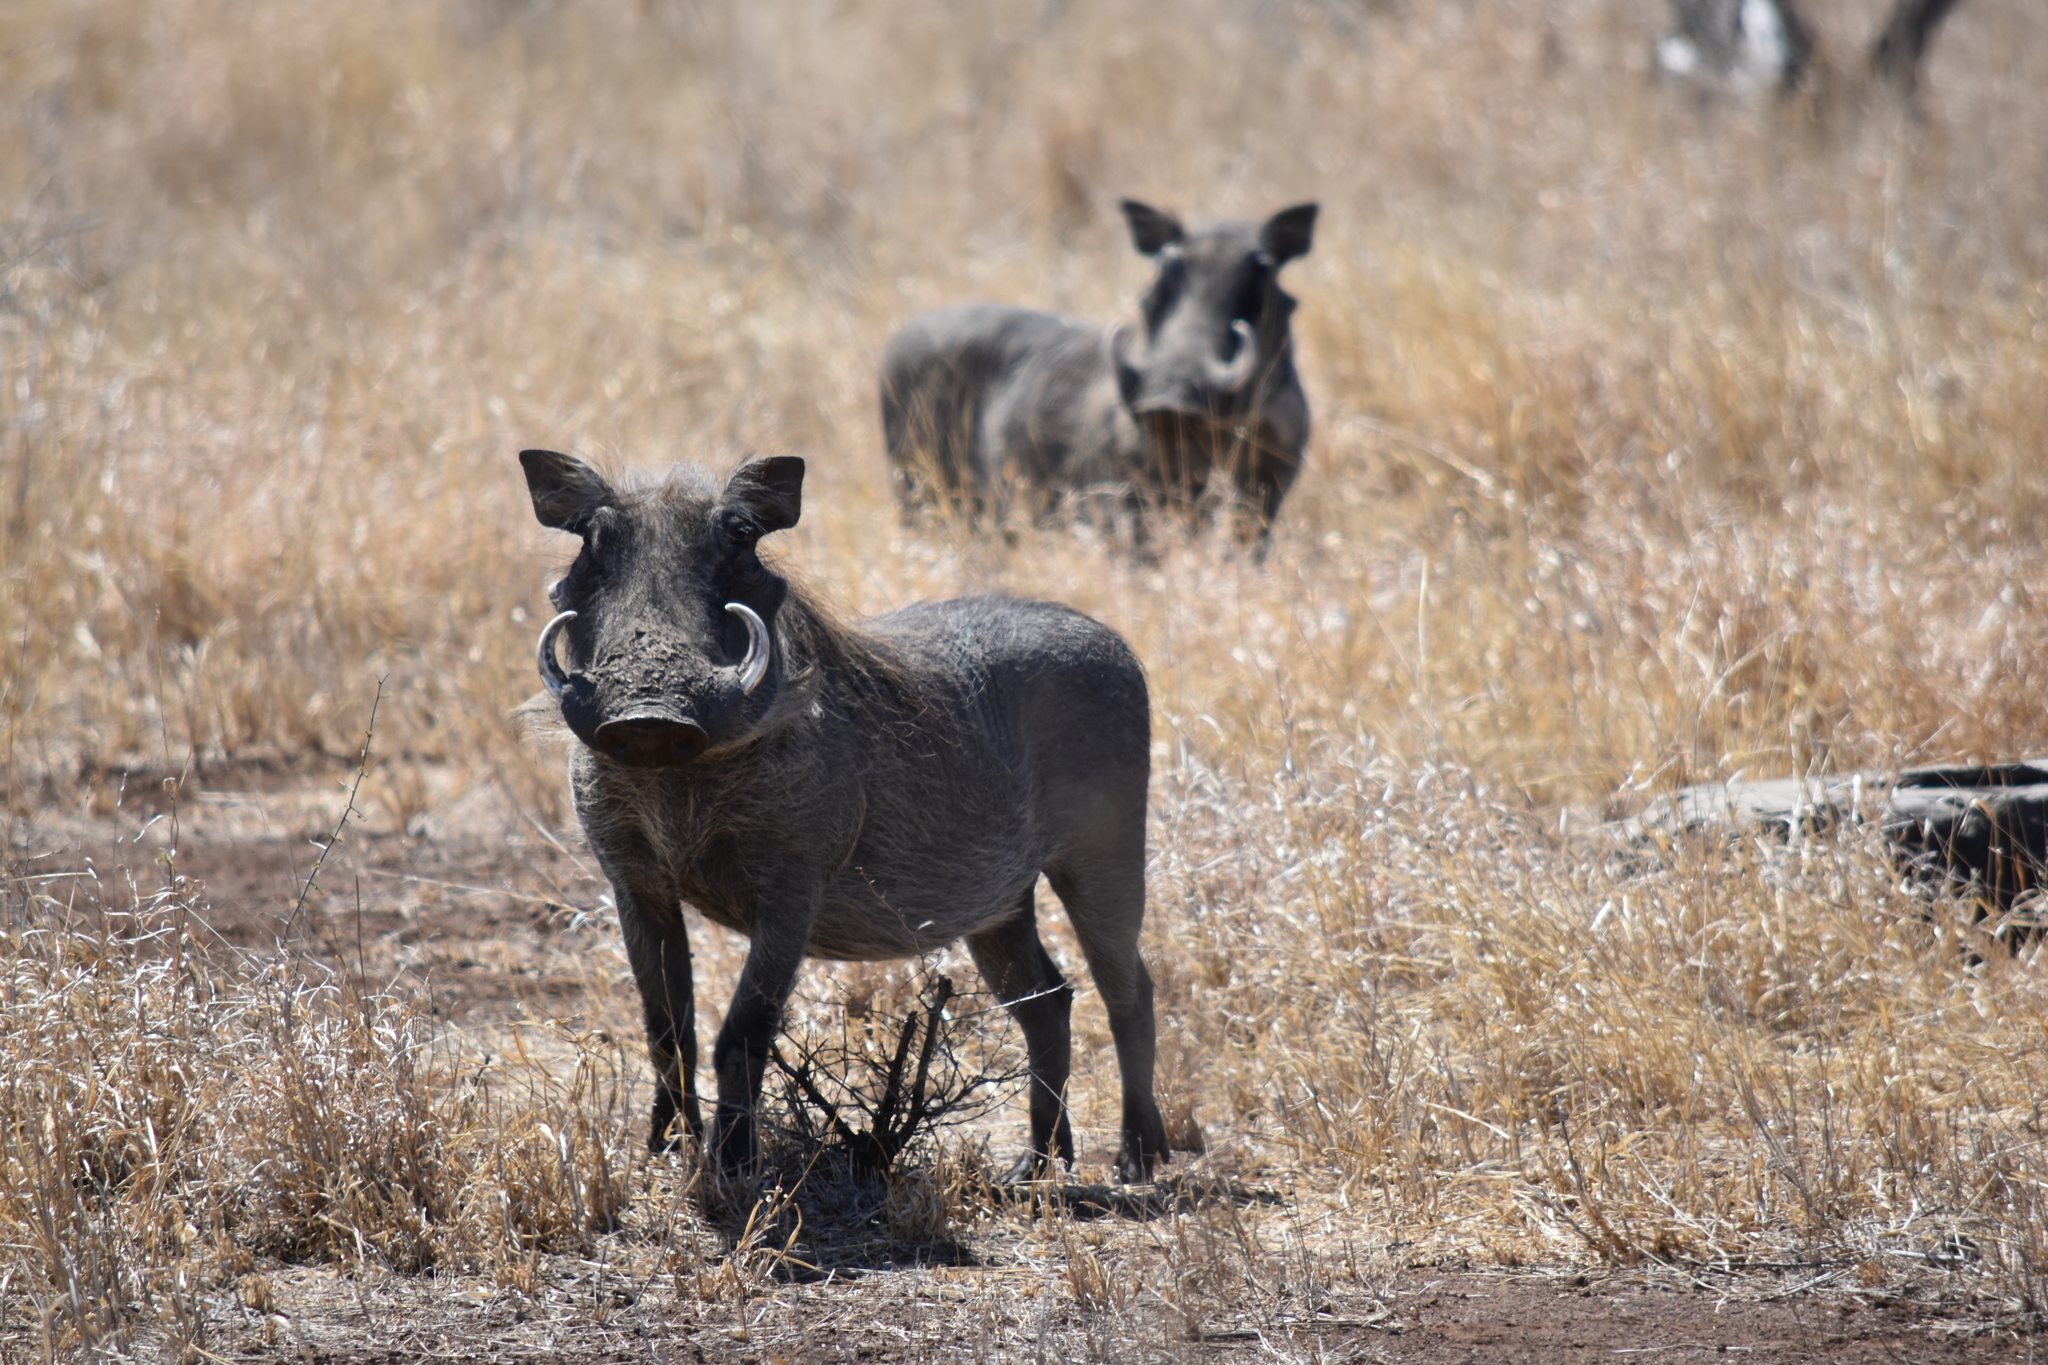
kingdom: Animalia
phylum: Chordata
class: Mammalia
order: Artiodactyla
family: Suidae
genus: Phacochoerus
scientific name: Phacochoerus africanus
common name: Common warthog
